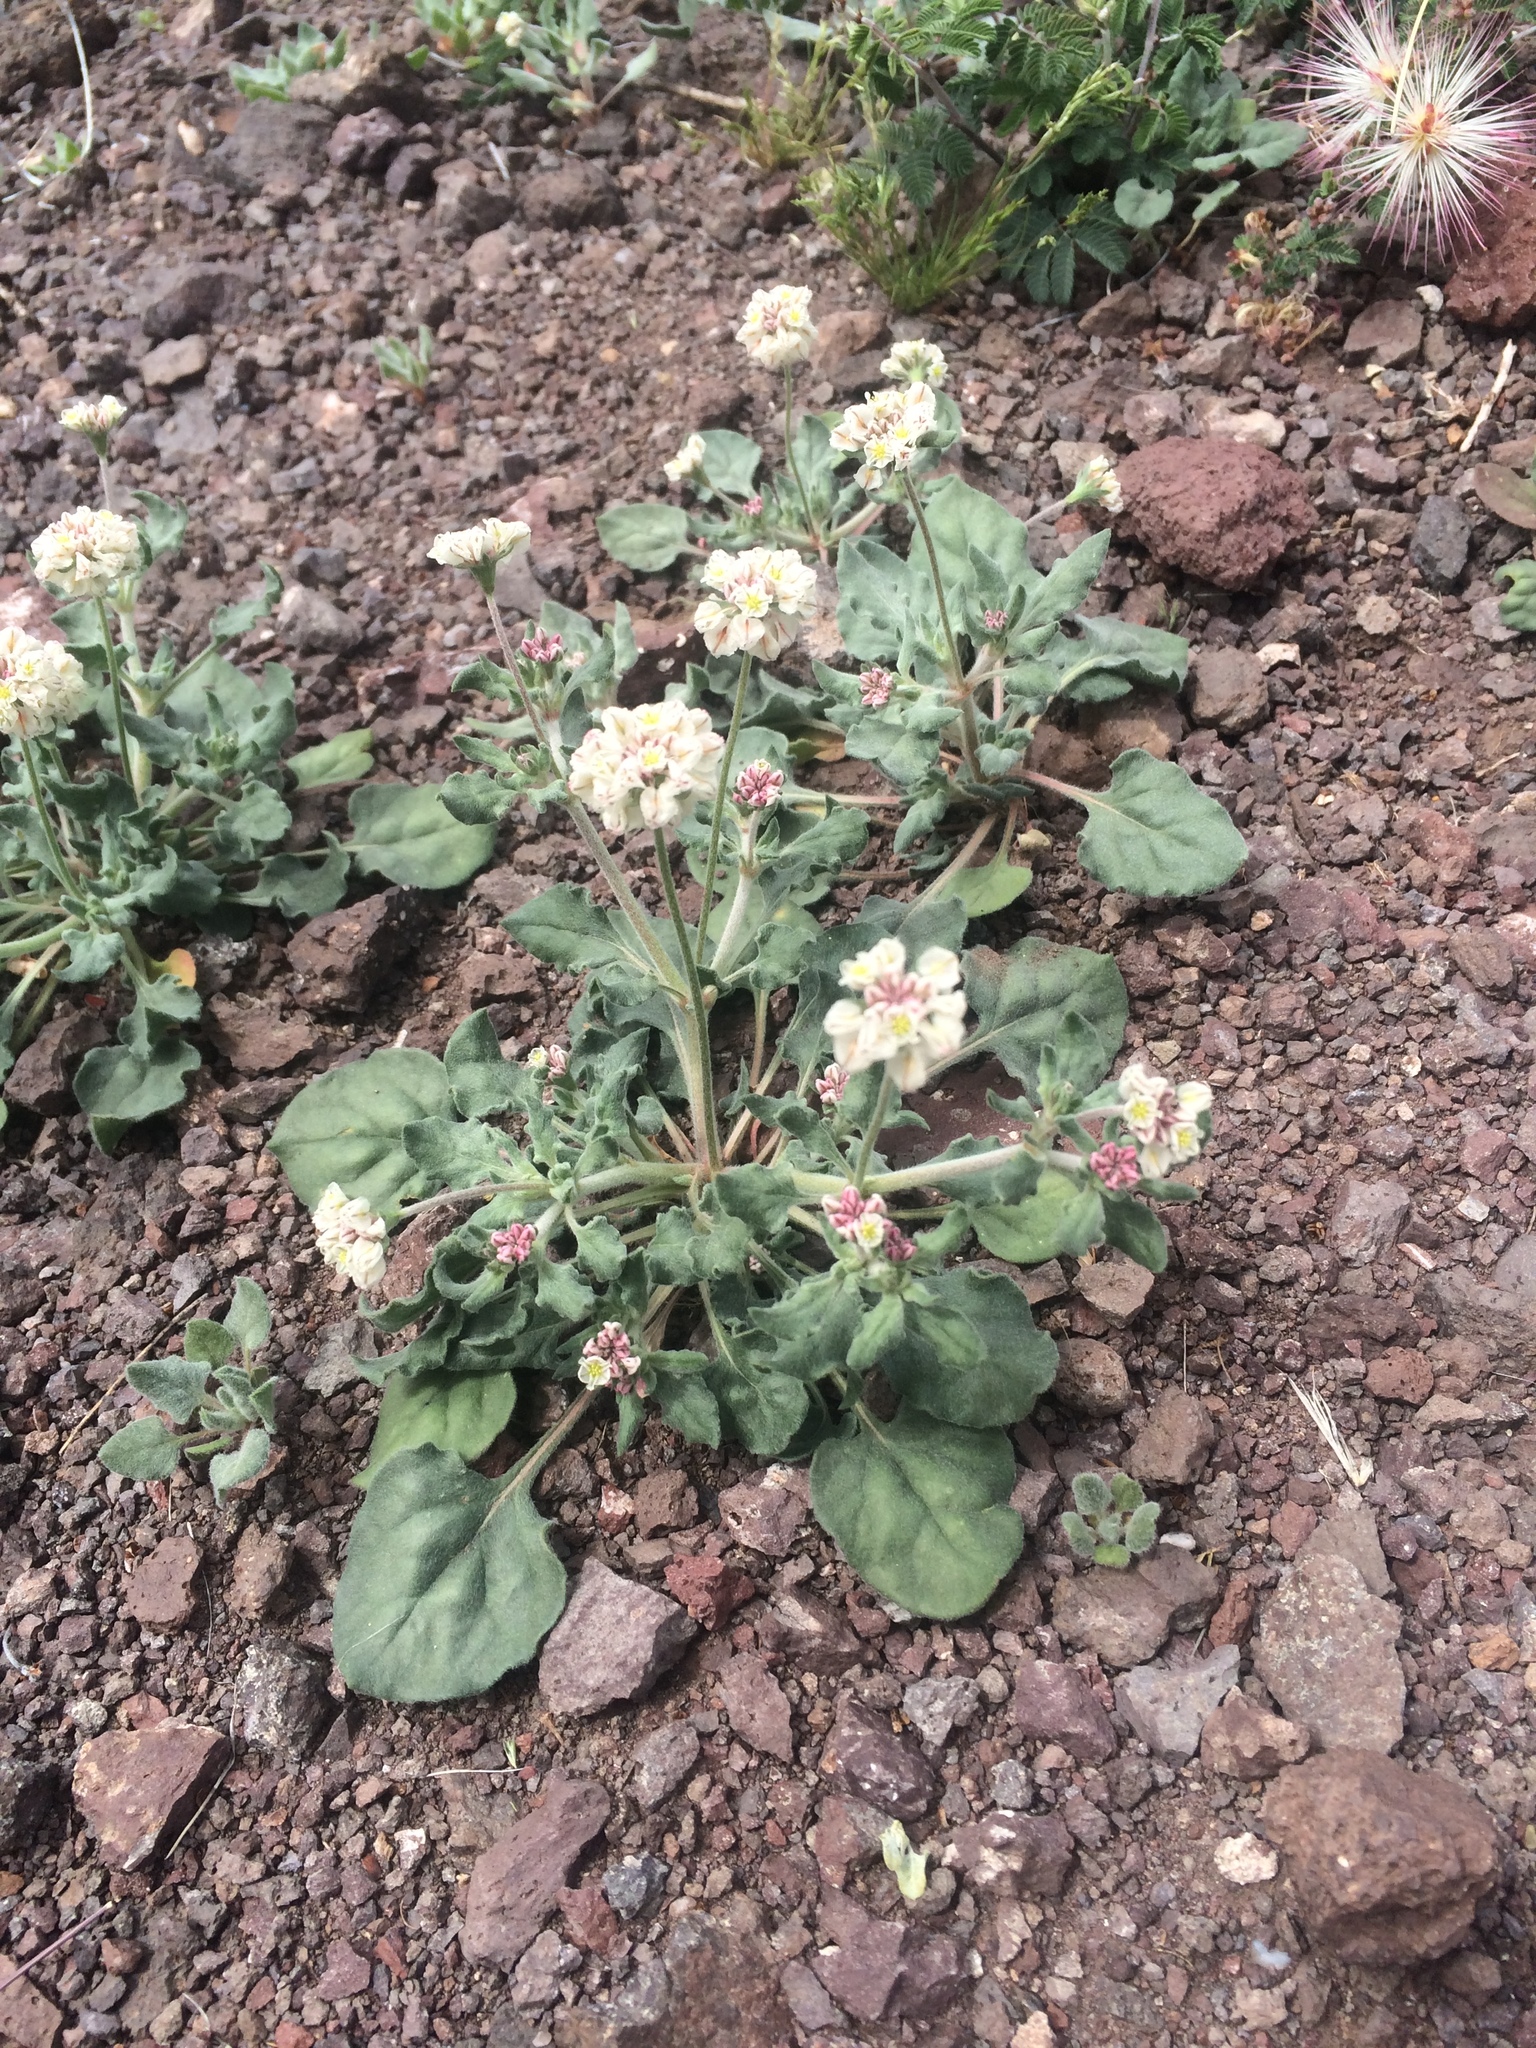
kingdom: Plantae
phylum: Tracheophyta
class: Magnoliopsida
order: Caryophyllales
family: Polygonaceae
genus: Eriogonum
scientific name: Eriogonum abertianum
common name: Abert's wild buckwheat
